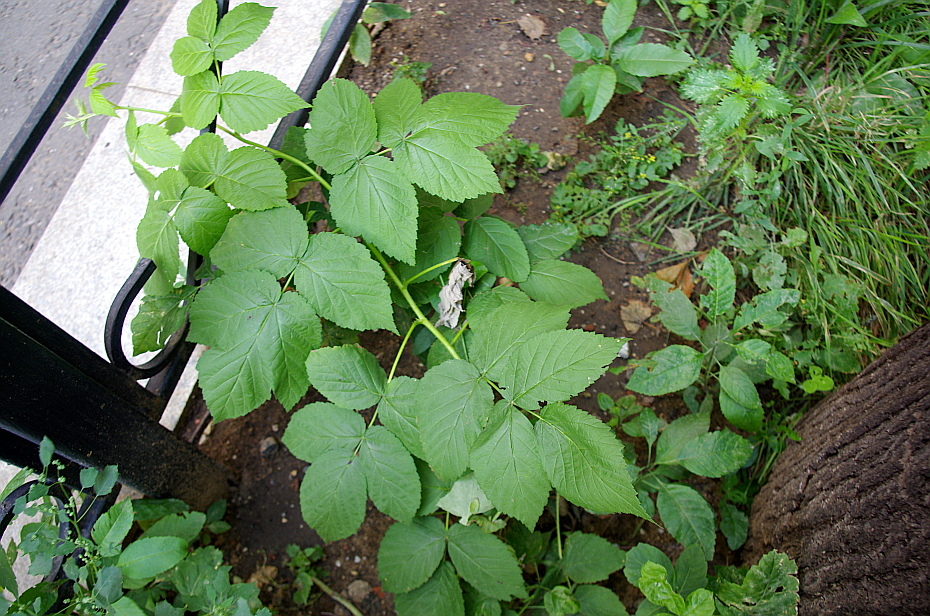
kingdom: Plantae
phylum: Tracheophyta
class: Magnoliopsida
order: Rosales
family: Rosaceae
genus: Rubus
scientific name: Rubus idaeus
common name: Raspberry
